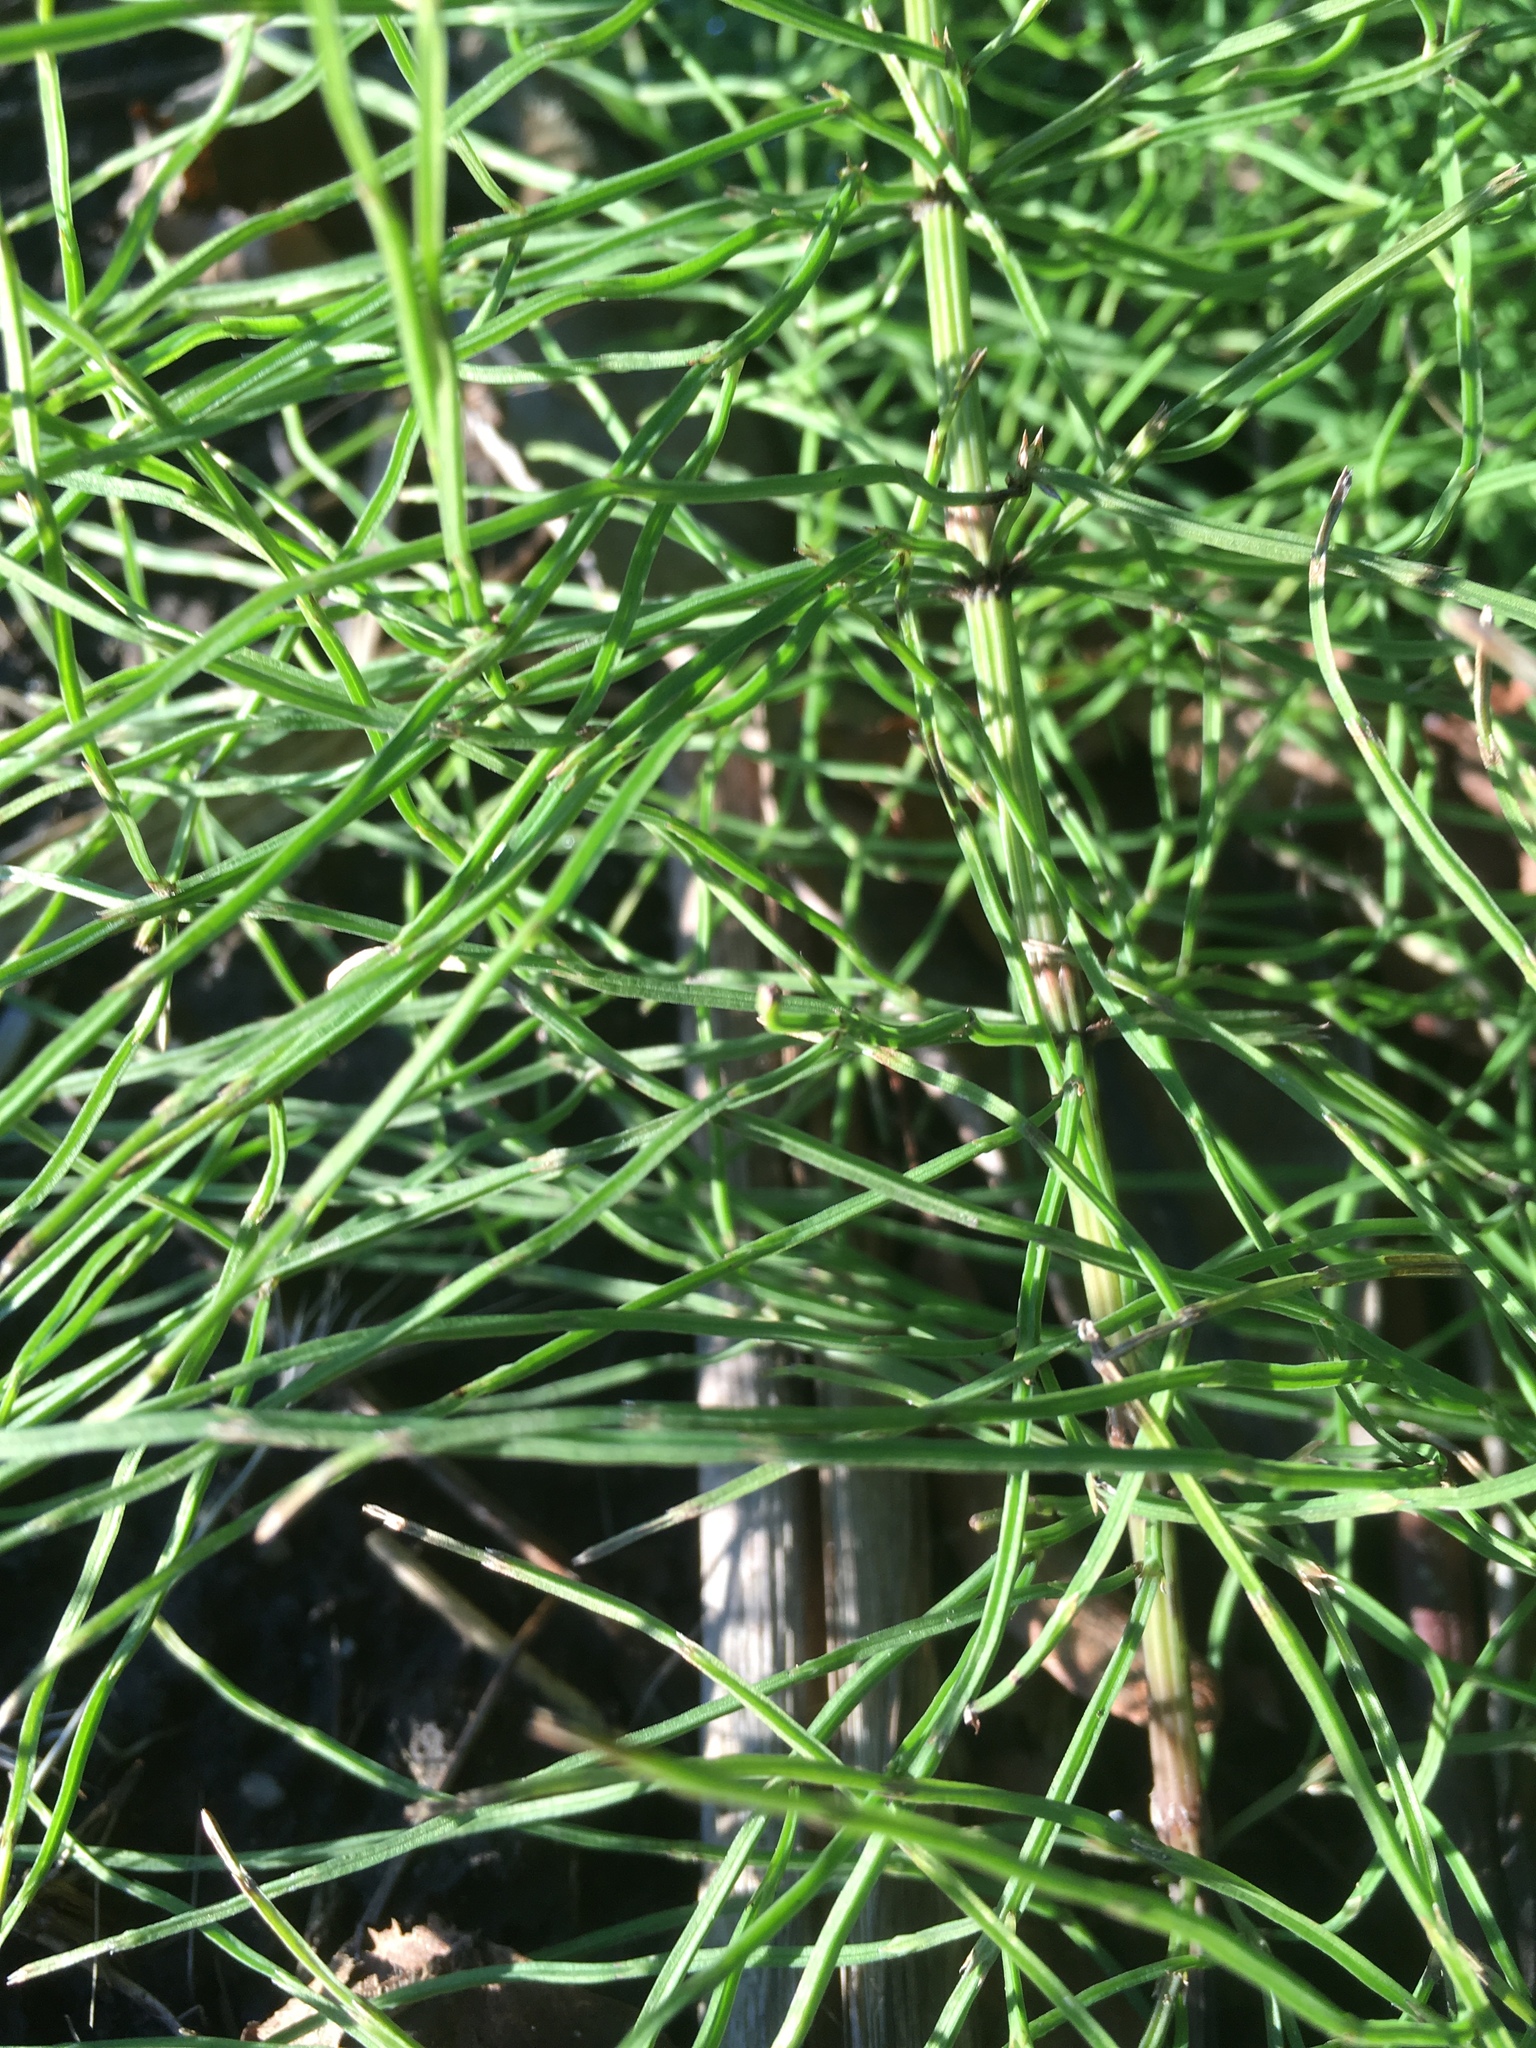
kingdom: Plantae
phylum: Tracheophyta
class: Polypodiopsida
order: Equisetales
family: Equisetaceae
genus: Equisetum
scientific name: Equisetum arvense
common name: Field horsetail
